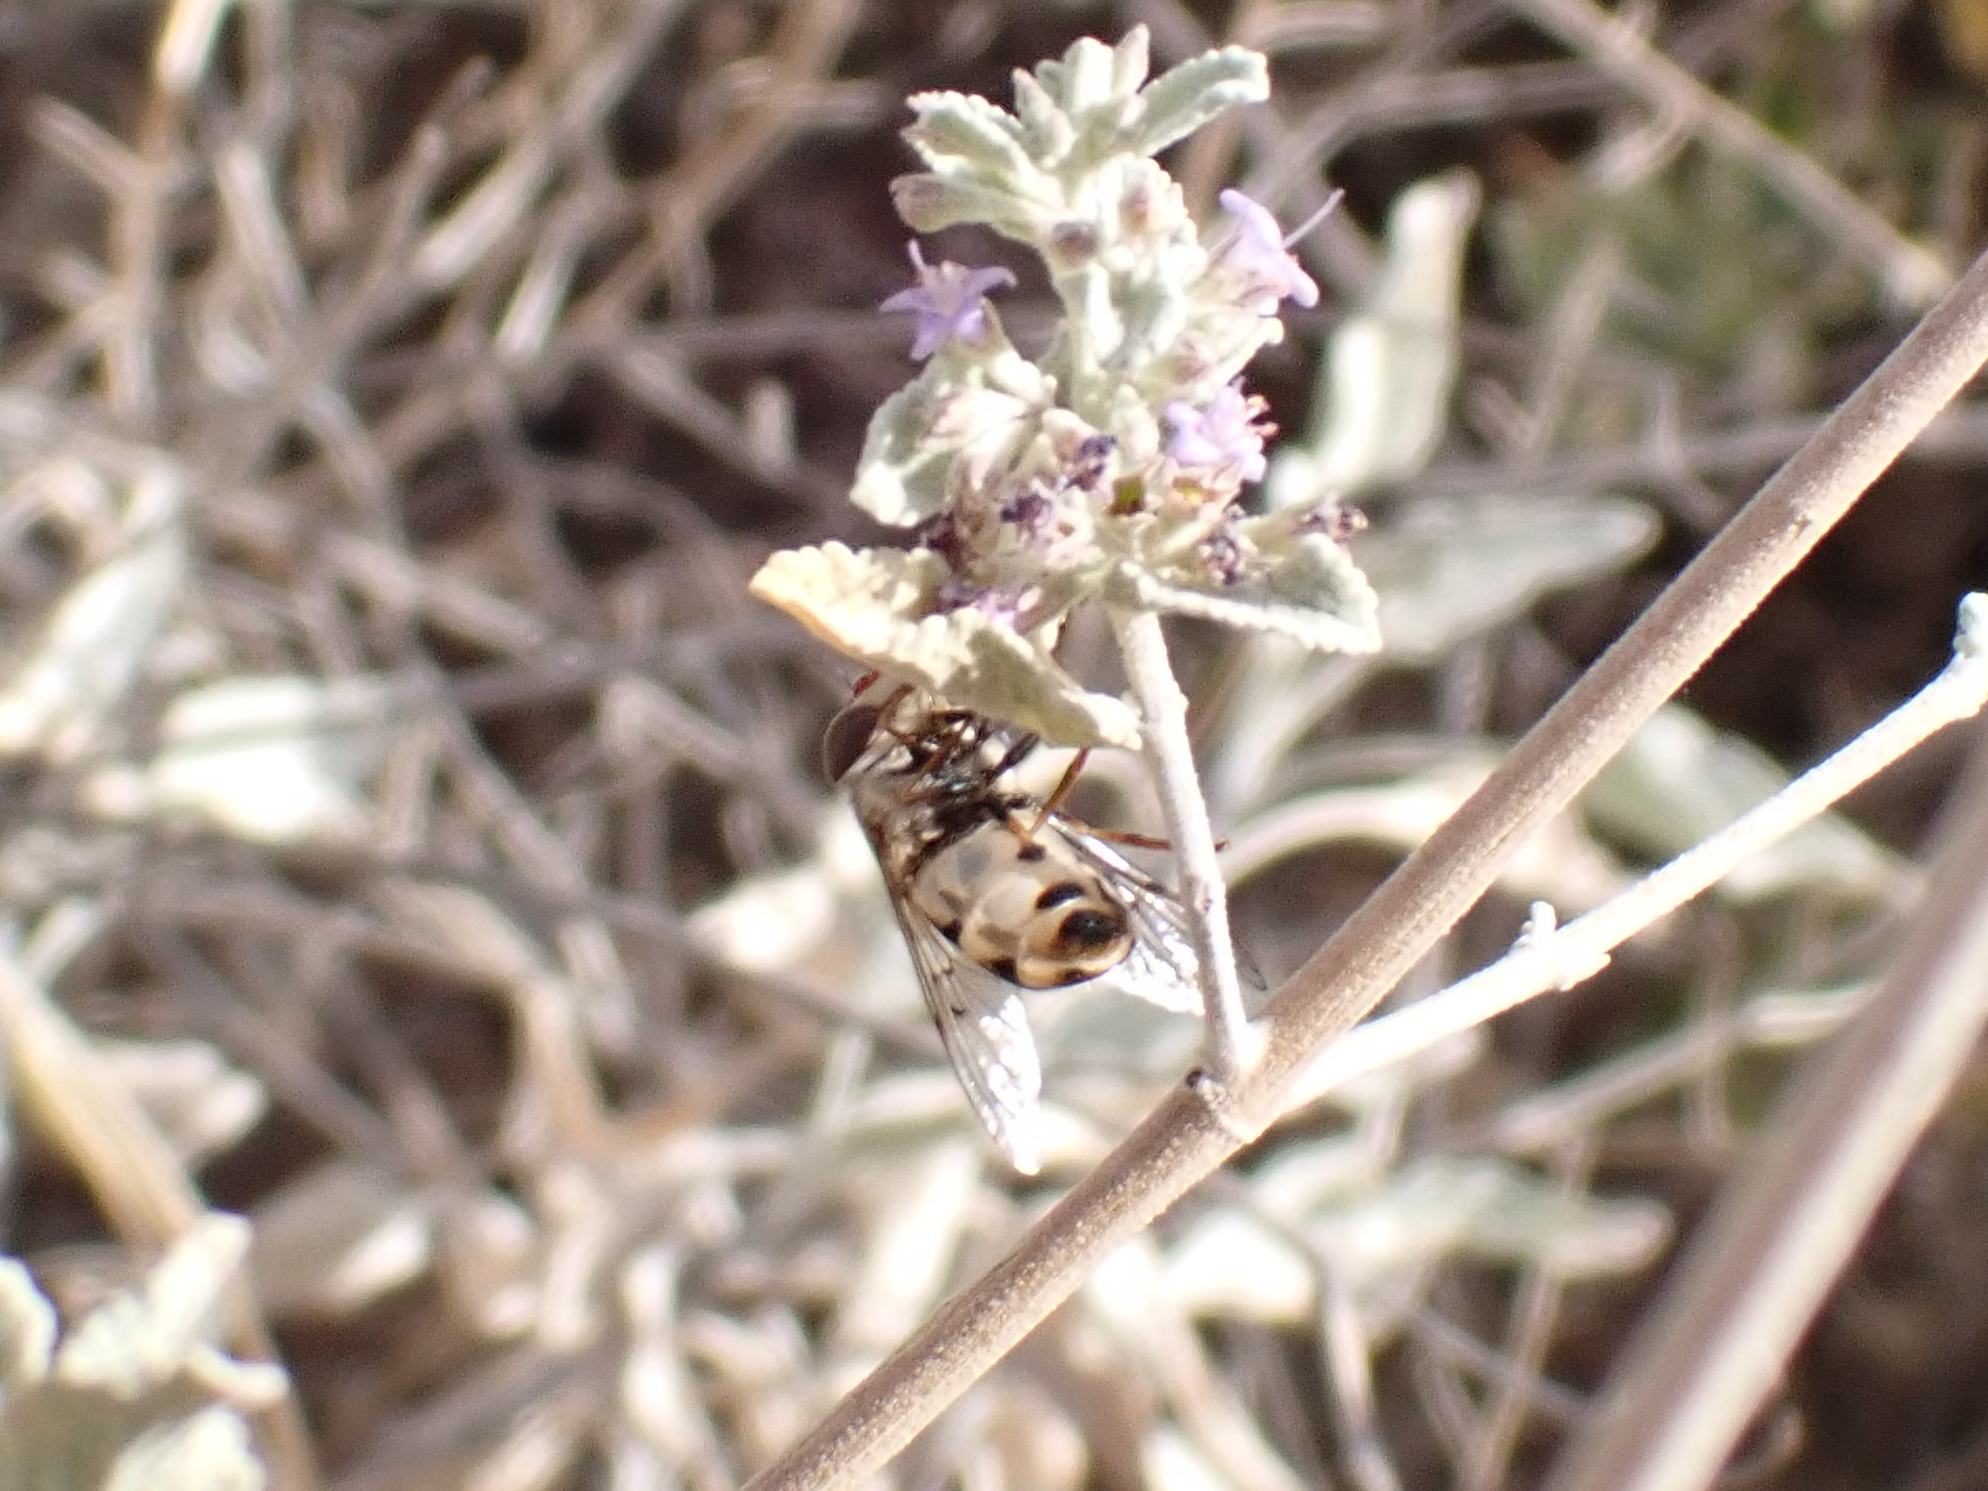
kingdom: Animalia
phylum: Arthropoda
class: Insecta
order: Diptera
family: Syrphidae
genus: Copestylum
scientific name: Copestylum isabellina
